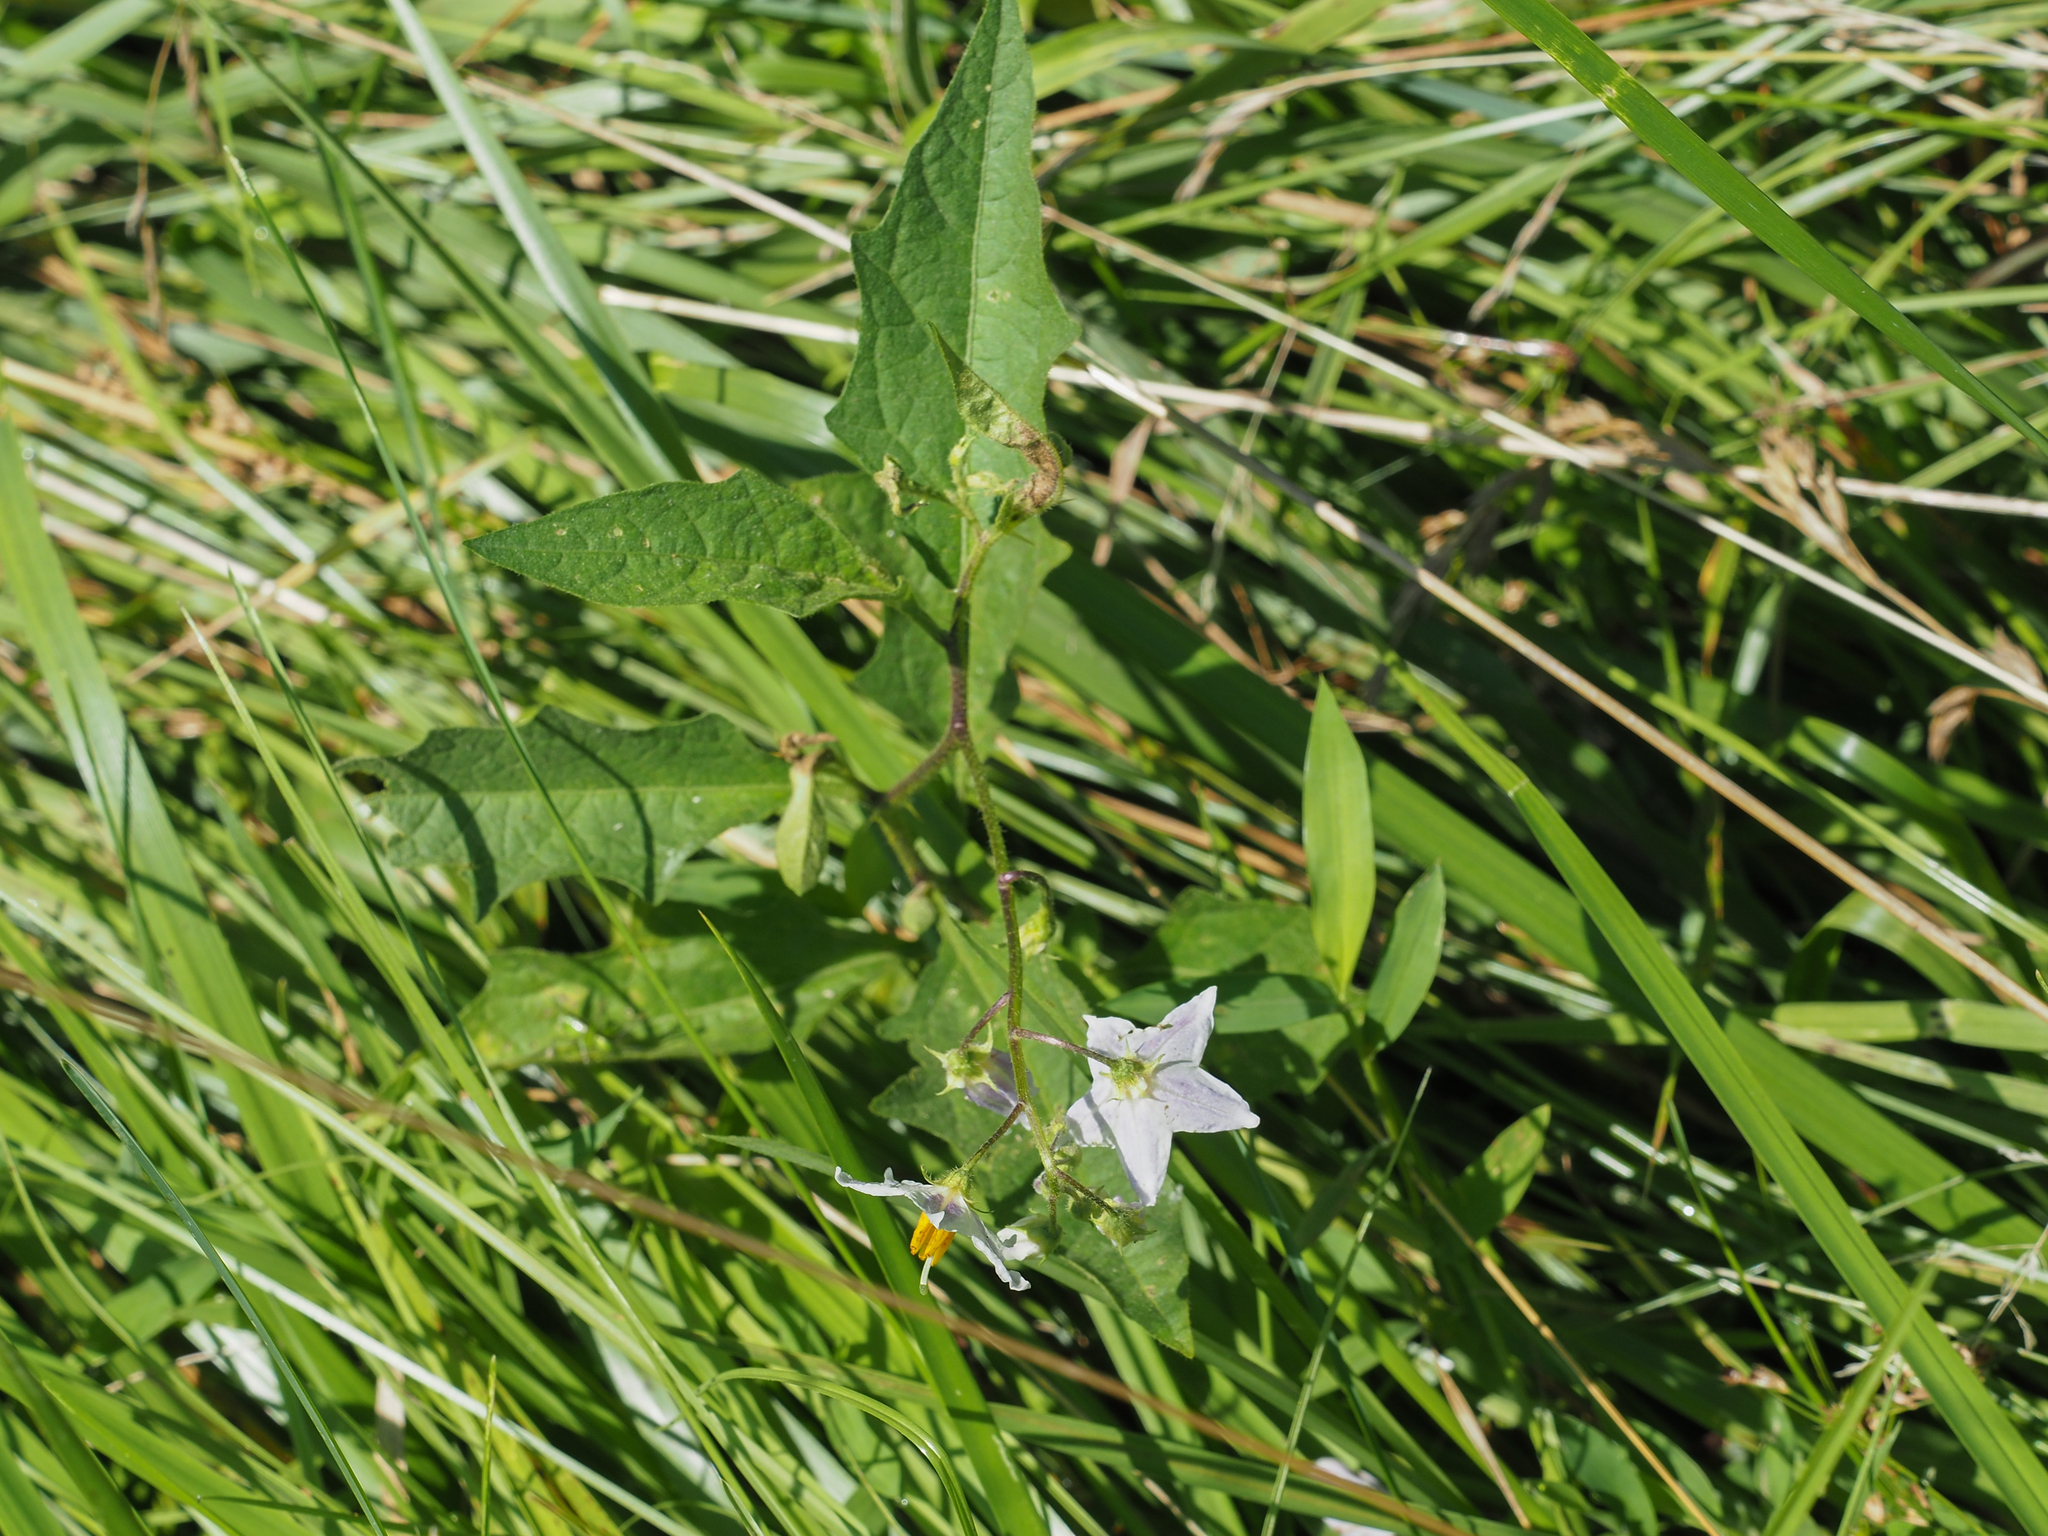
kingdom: Plantae
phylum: Tracheophyta
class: Magnoliopsida
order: Solanales
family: Solanaceae
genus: Solanum
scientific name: Solanum carolinense
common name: Horse-nettle
